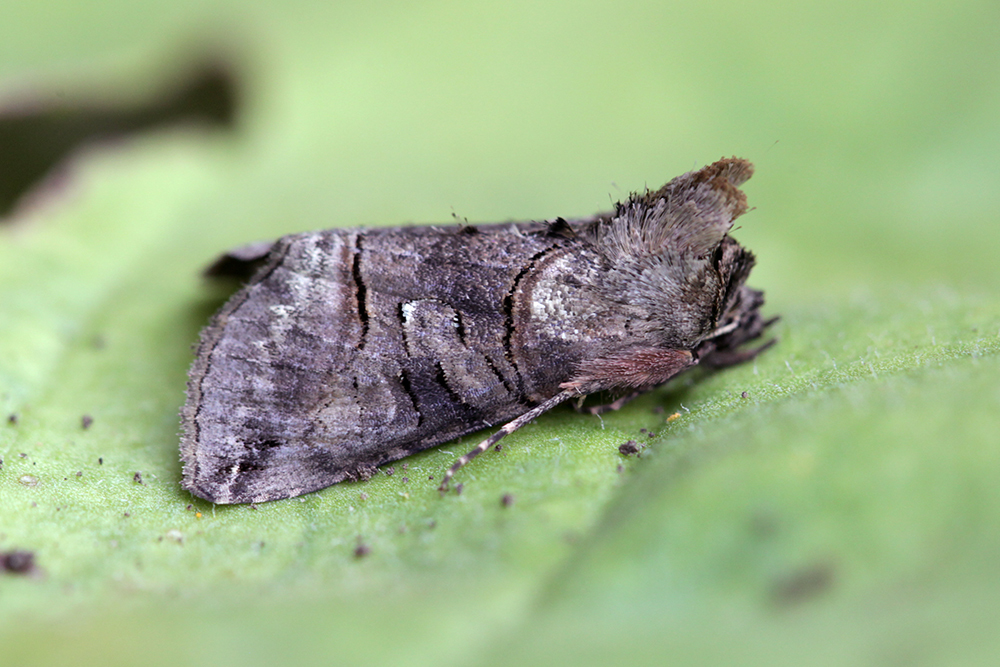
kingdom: Animalia
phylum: Arthropoda
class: Insecta
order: Lepidoptera
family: Noctuidae
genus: Abrostola
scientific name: Abrostola tripartita
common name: Spectacle
